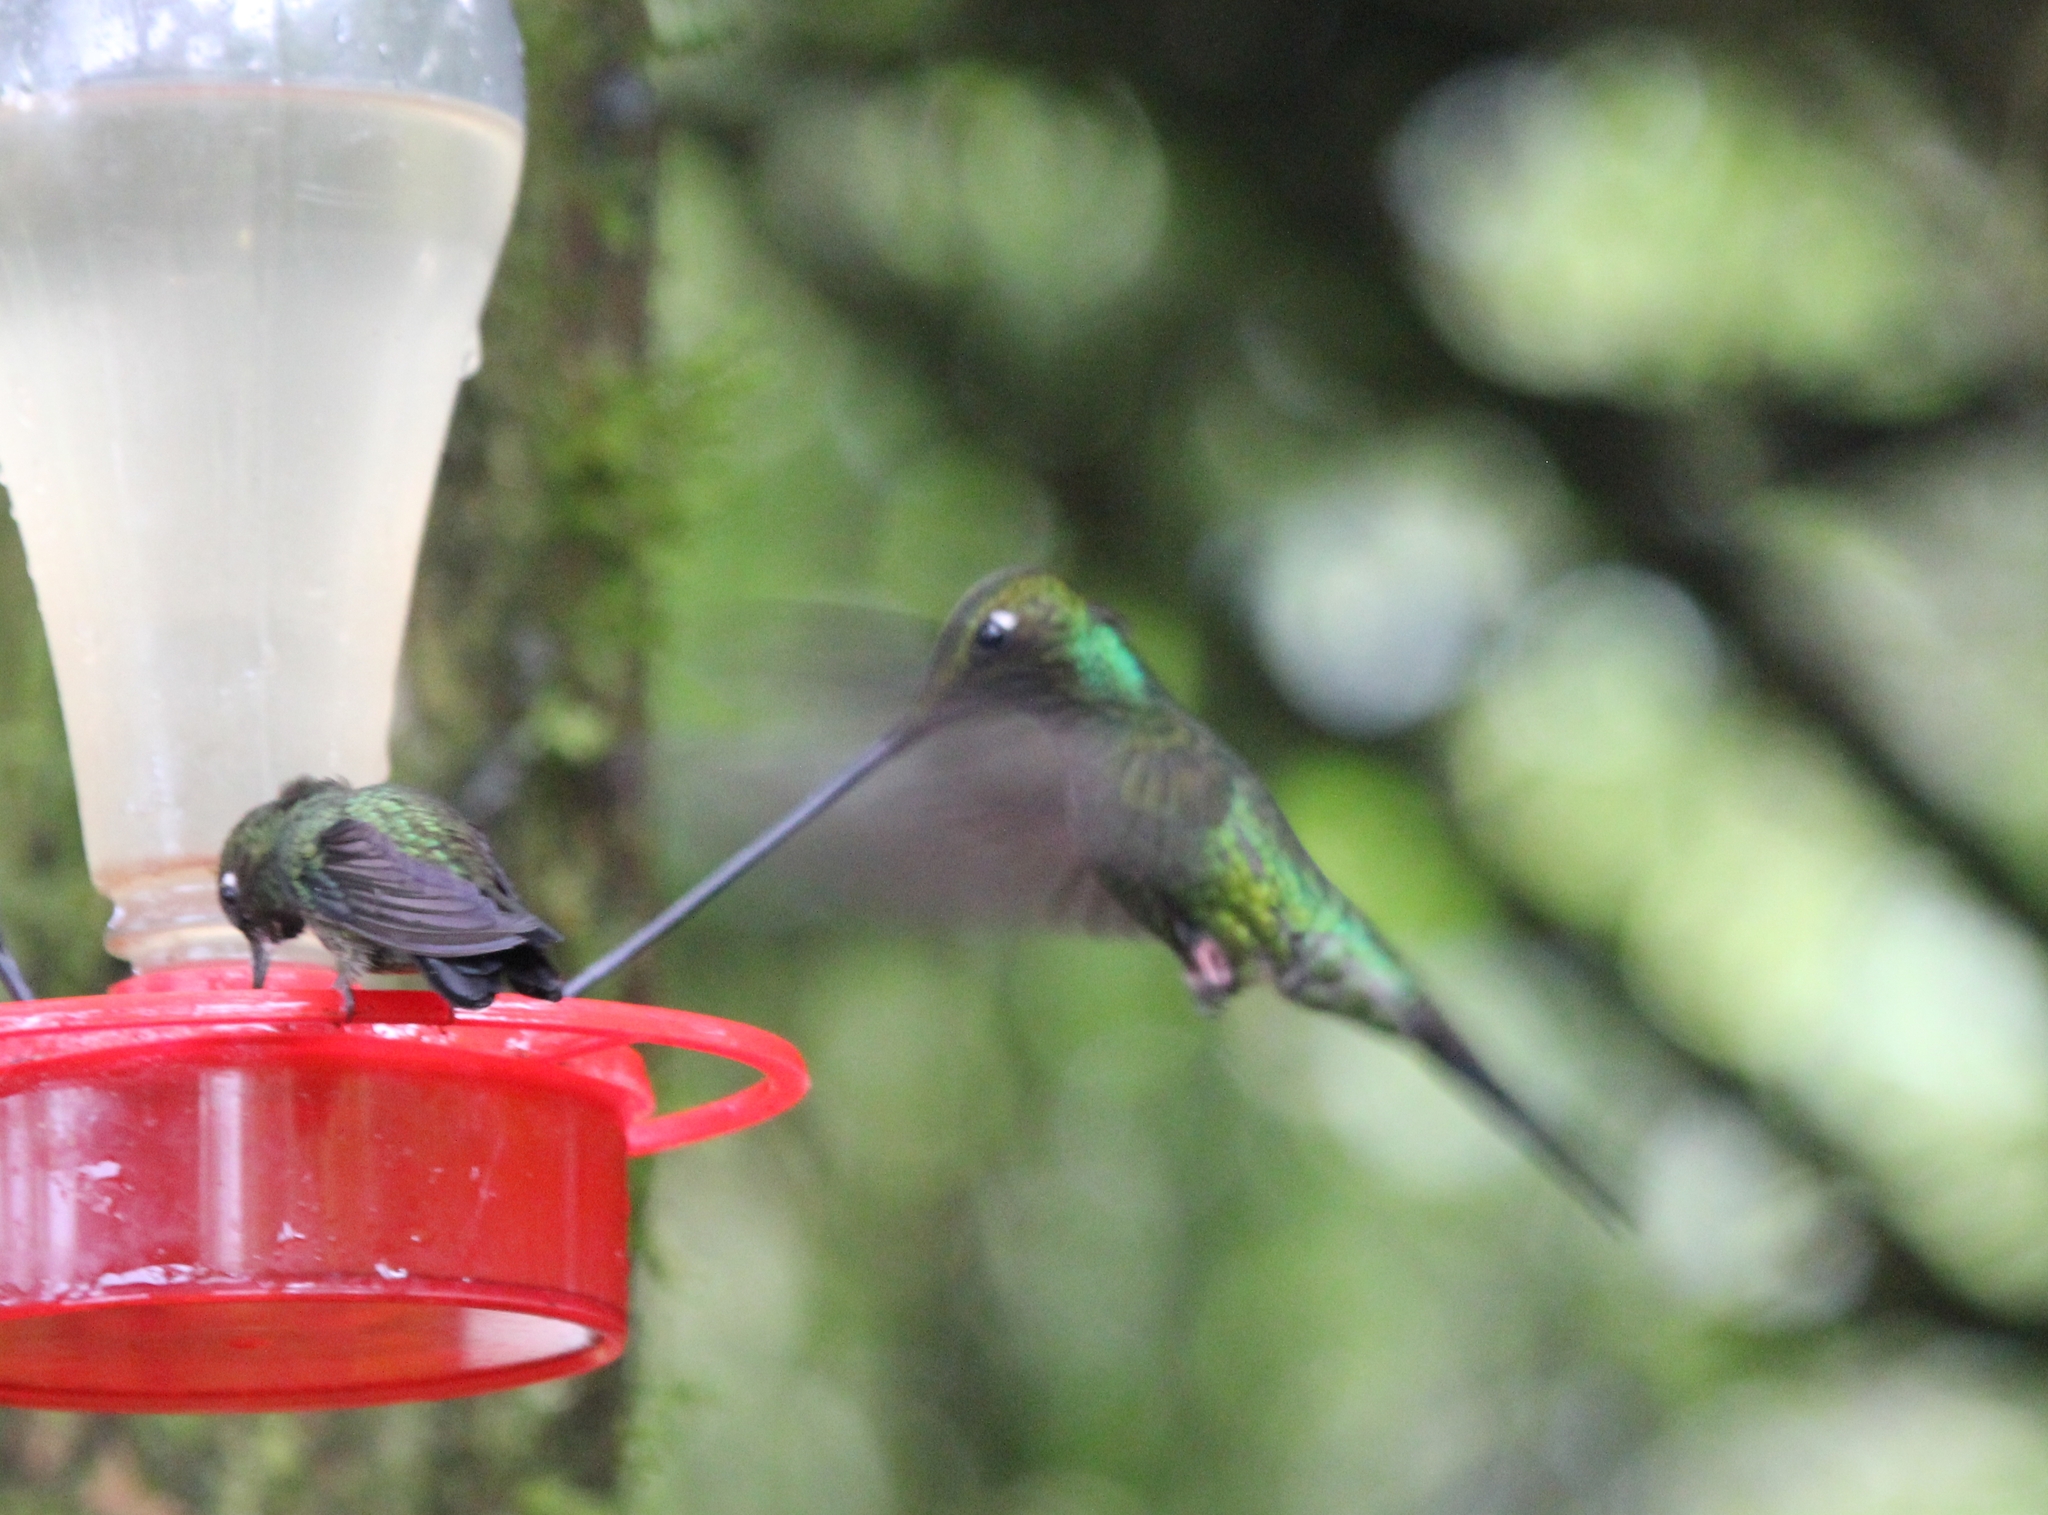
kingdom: Animalia
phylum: Chordata
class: Aves
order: Apodiformes
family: Trochilidae
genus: Ensifera
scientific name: Ensifera ensifera
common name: Sword-billed hummingbird
